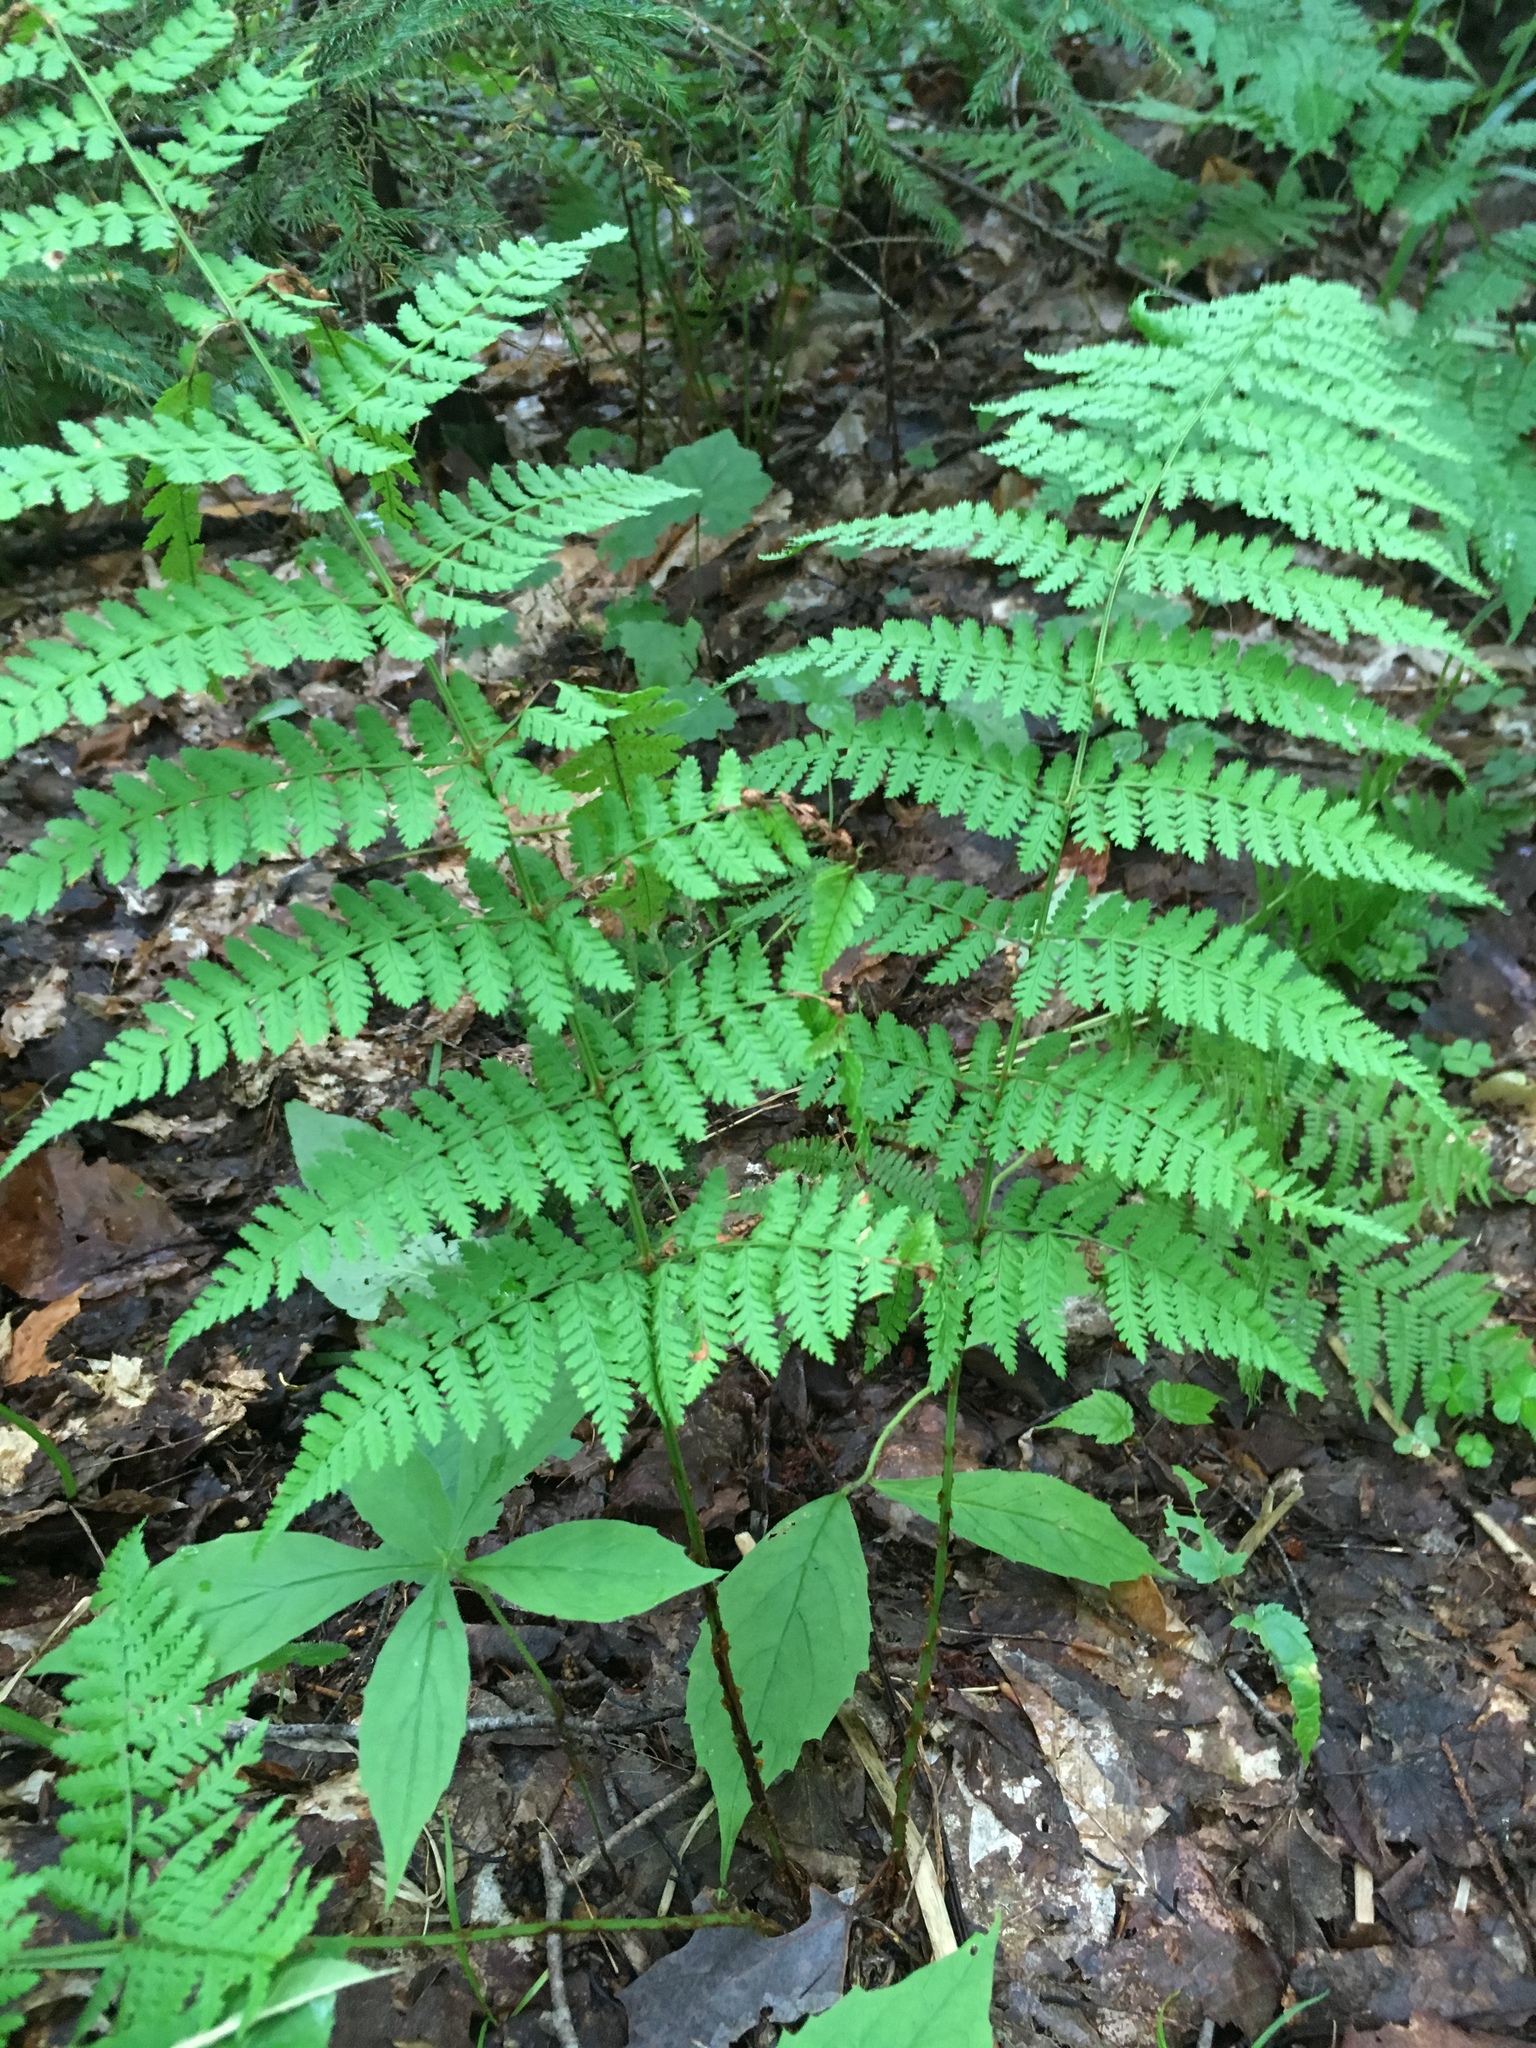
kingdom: Plantae
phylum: Tracheophyta
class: Polypodiopsida
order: Polypodiales
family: Dryopteridaceae
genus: Dryopteris
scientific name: Dryopteris intermedia
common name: Evergreen wood fern
